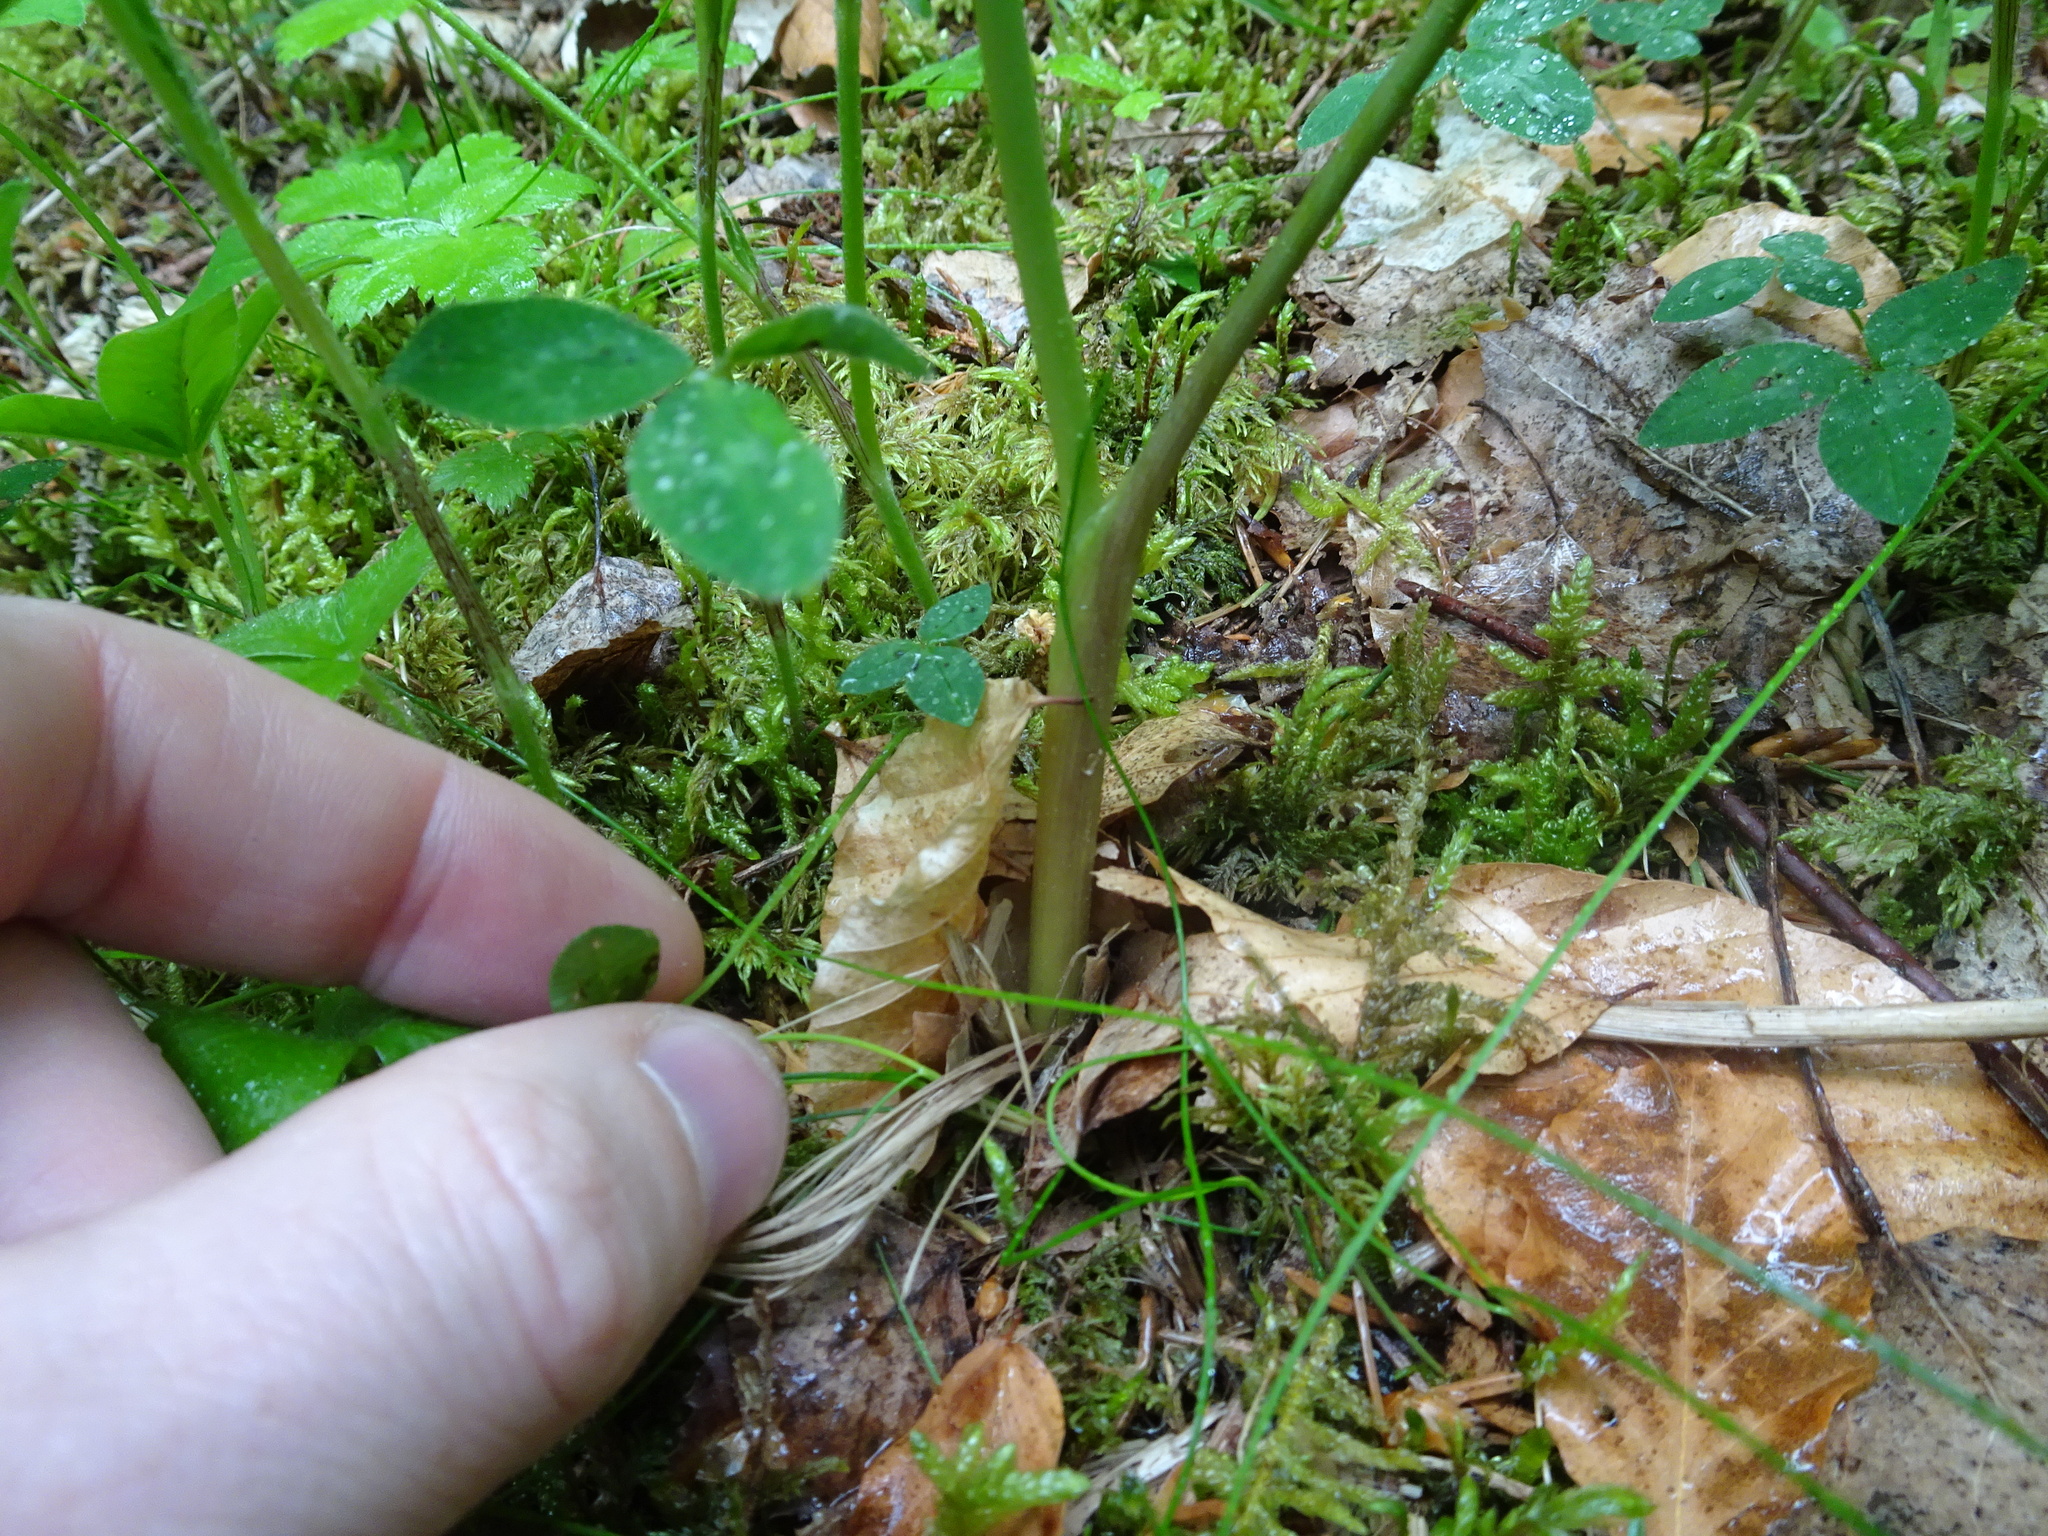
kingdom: Plantae
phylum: Tracheophyta
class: Magnoliopsida
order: Apiales
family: Apiaceae
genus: Laserpitium
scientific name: Laserpitium latifolium
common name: Broadleaf sermountain
